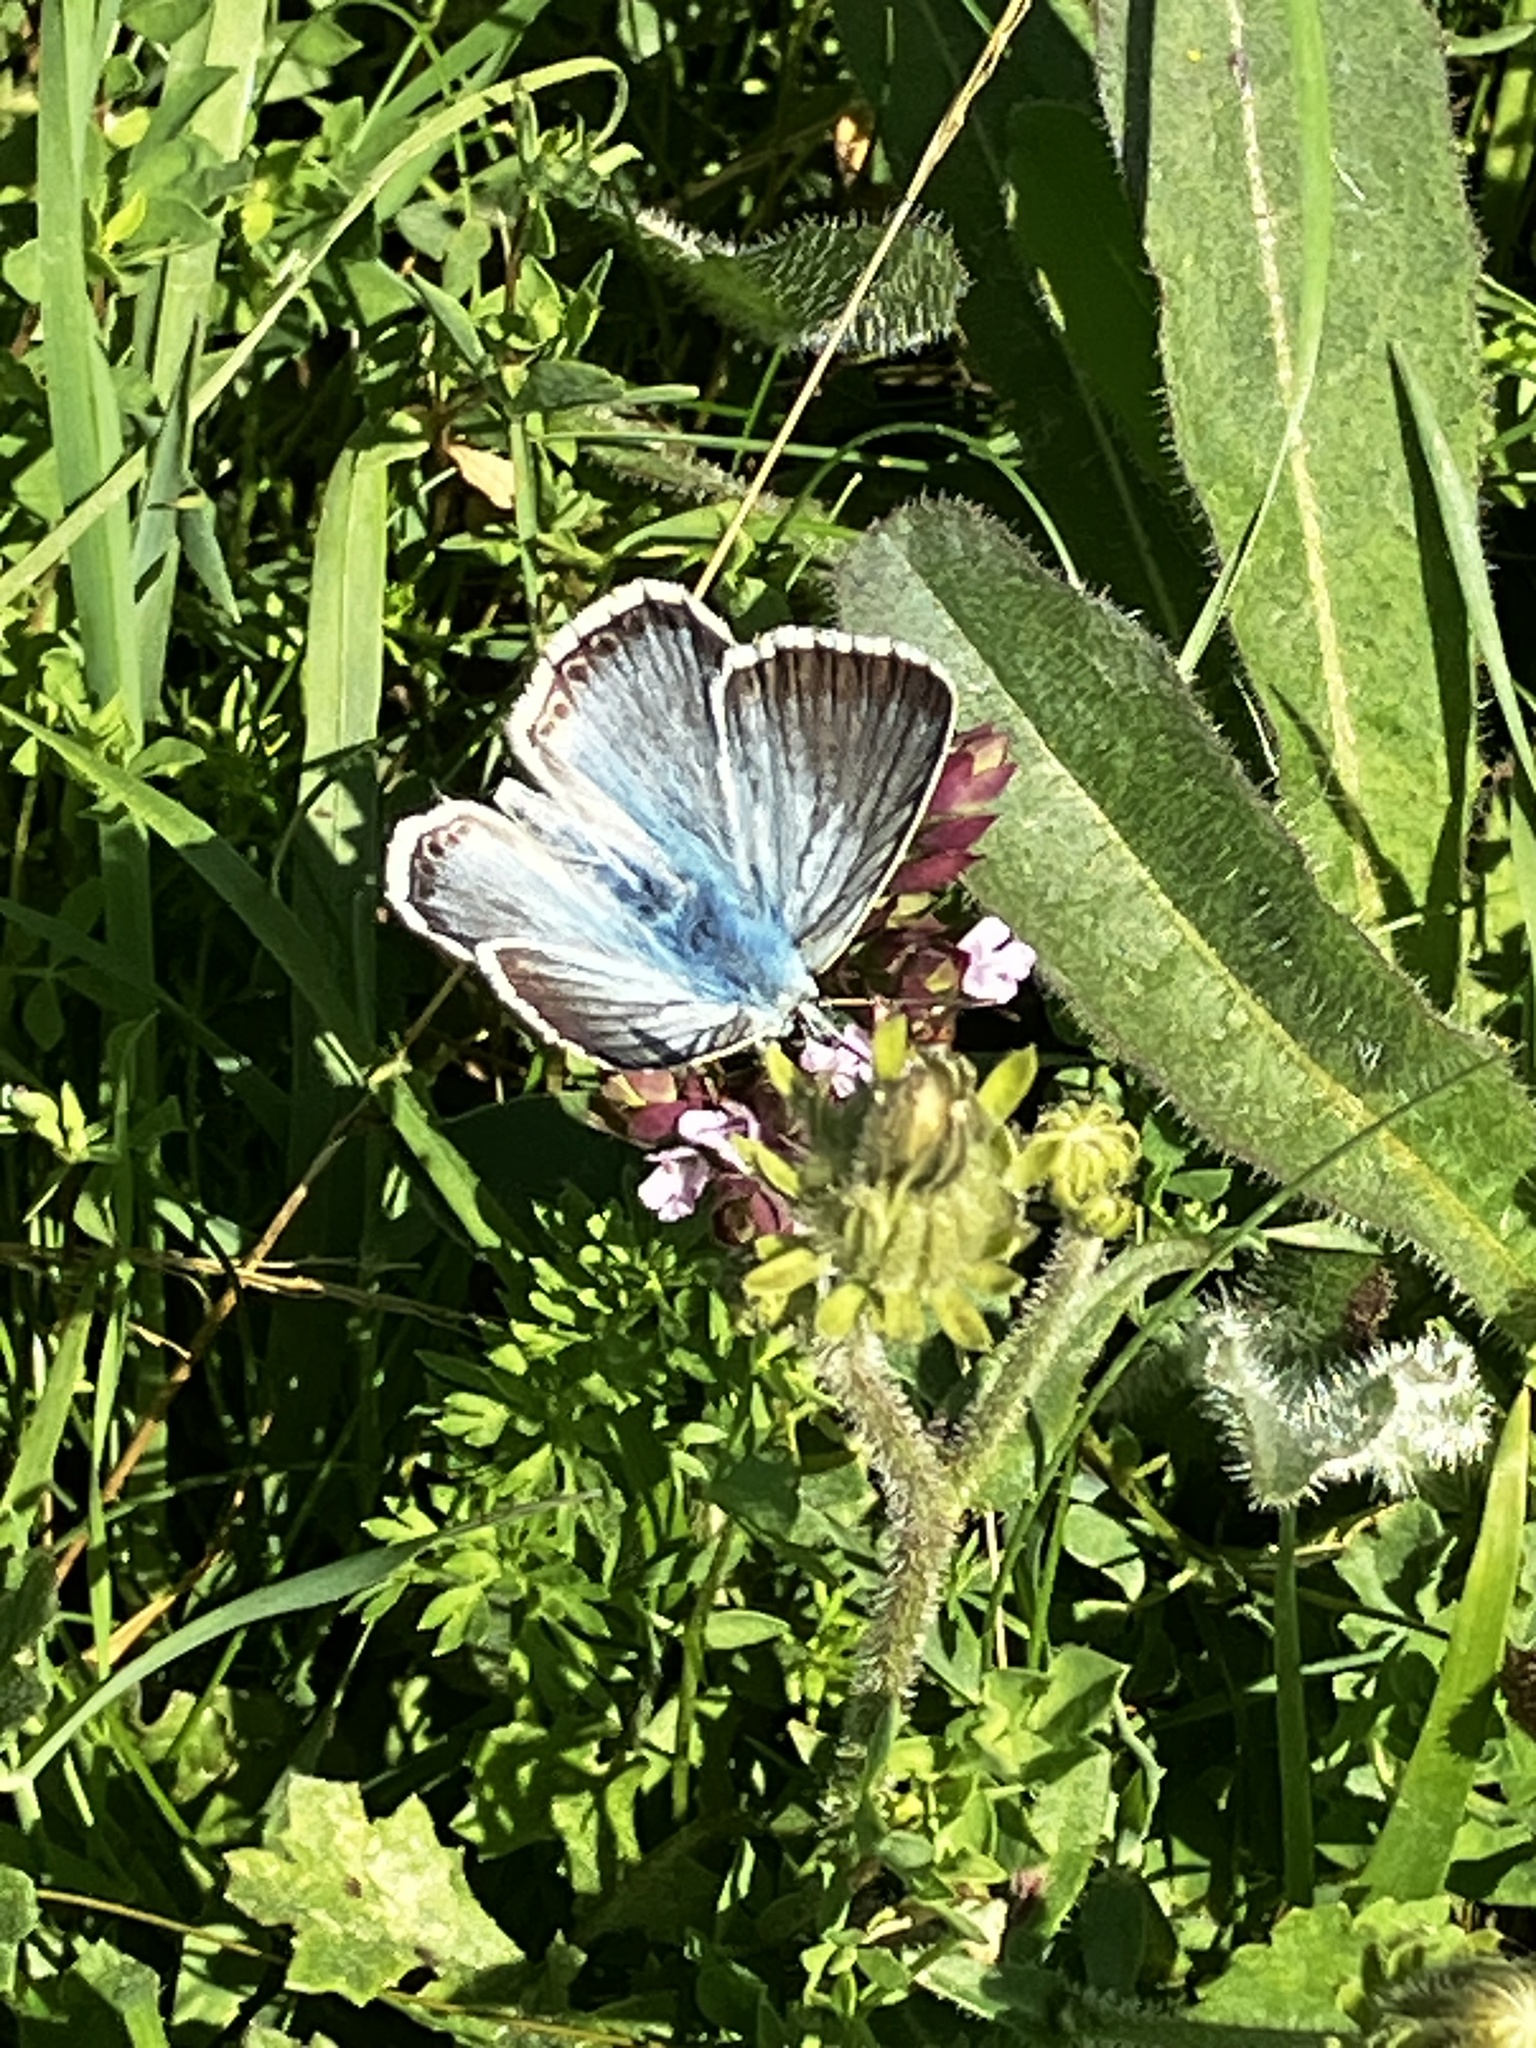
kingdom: Animalia
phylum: Arthropoda
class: Insecta
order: Lepidoptera
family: Lycaenidae
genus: Lysandra
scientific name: Lysandra coridon
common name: Chalkhill blue
